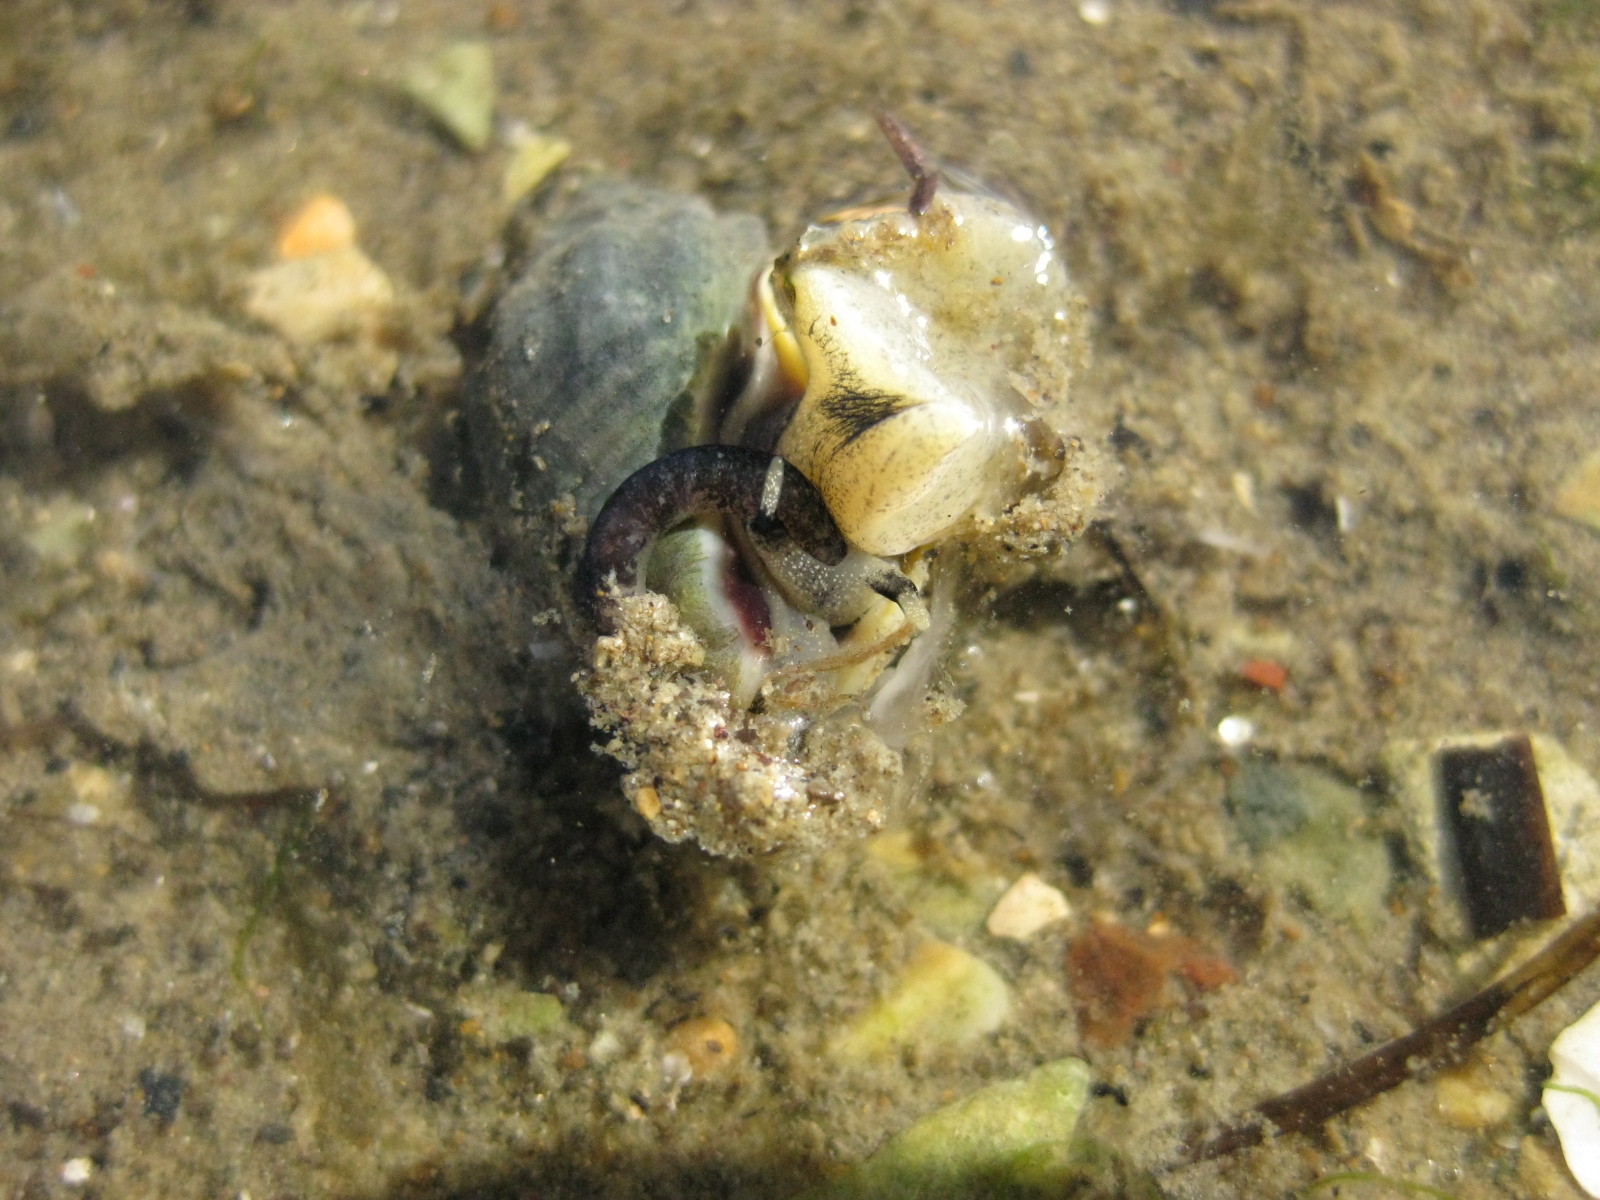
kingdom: Animalia
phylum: Mollusca
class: Gastropoda
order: Neogastropoda
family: Cominellidae
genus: Cominella
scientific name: Cominella glandiformis
